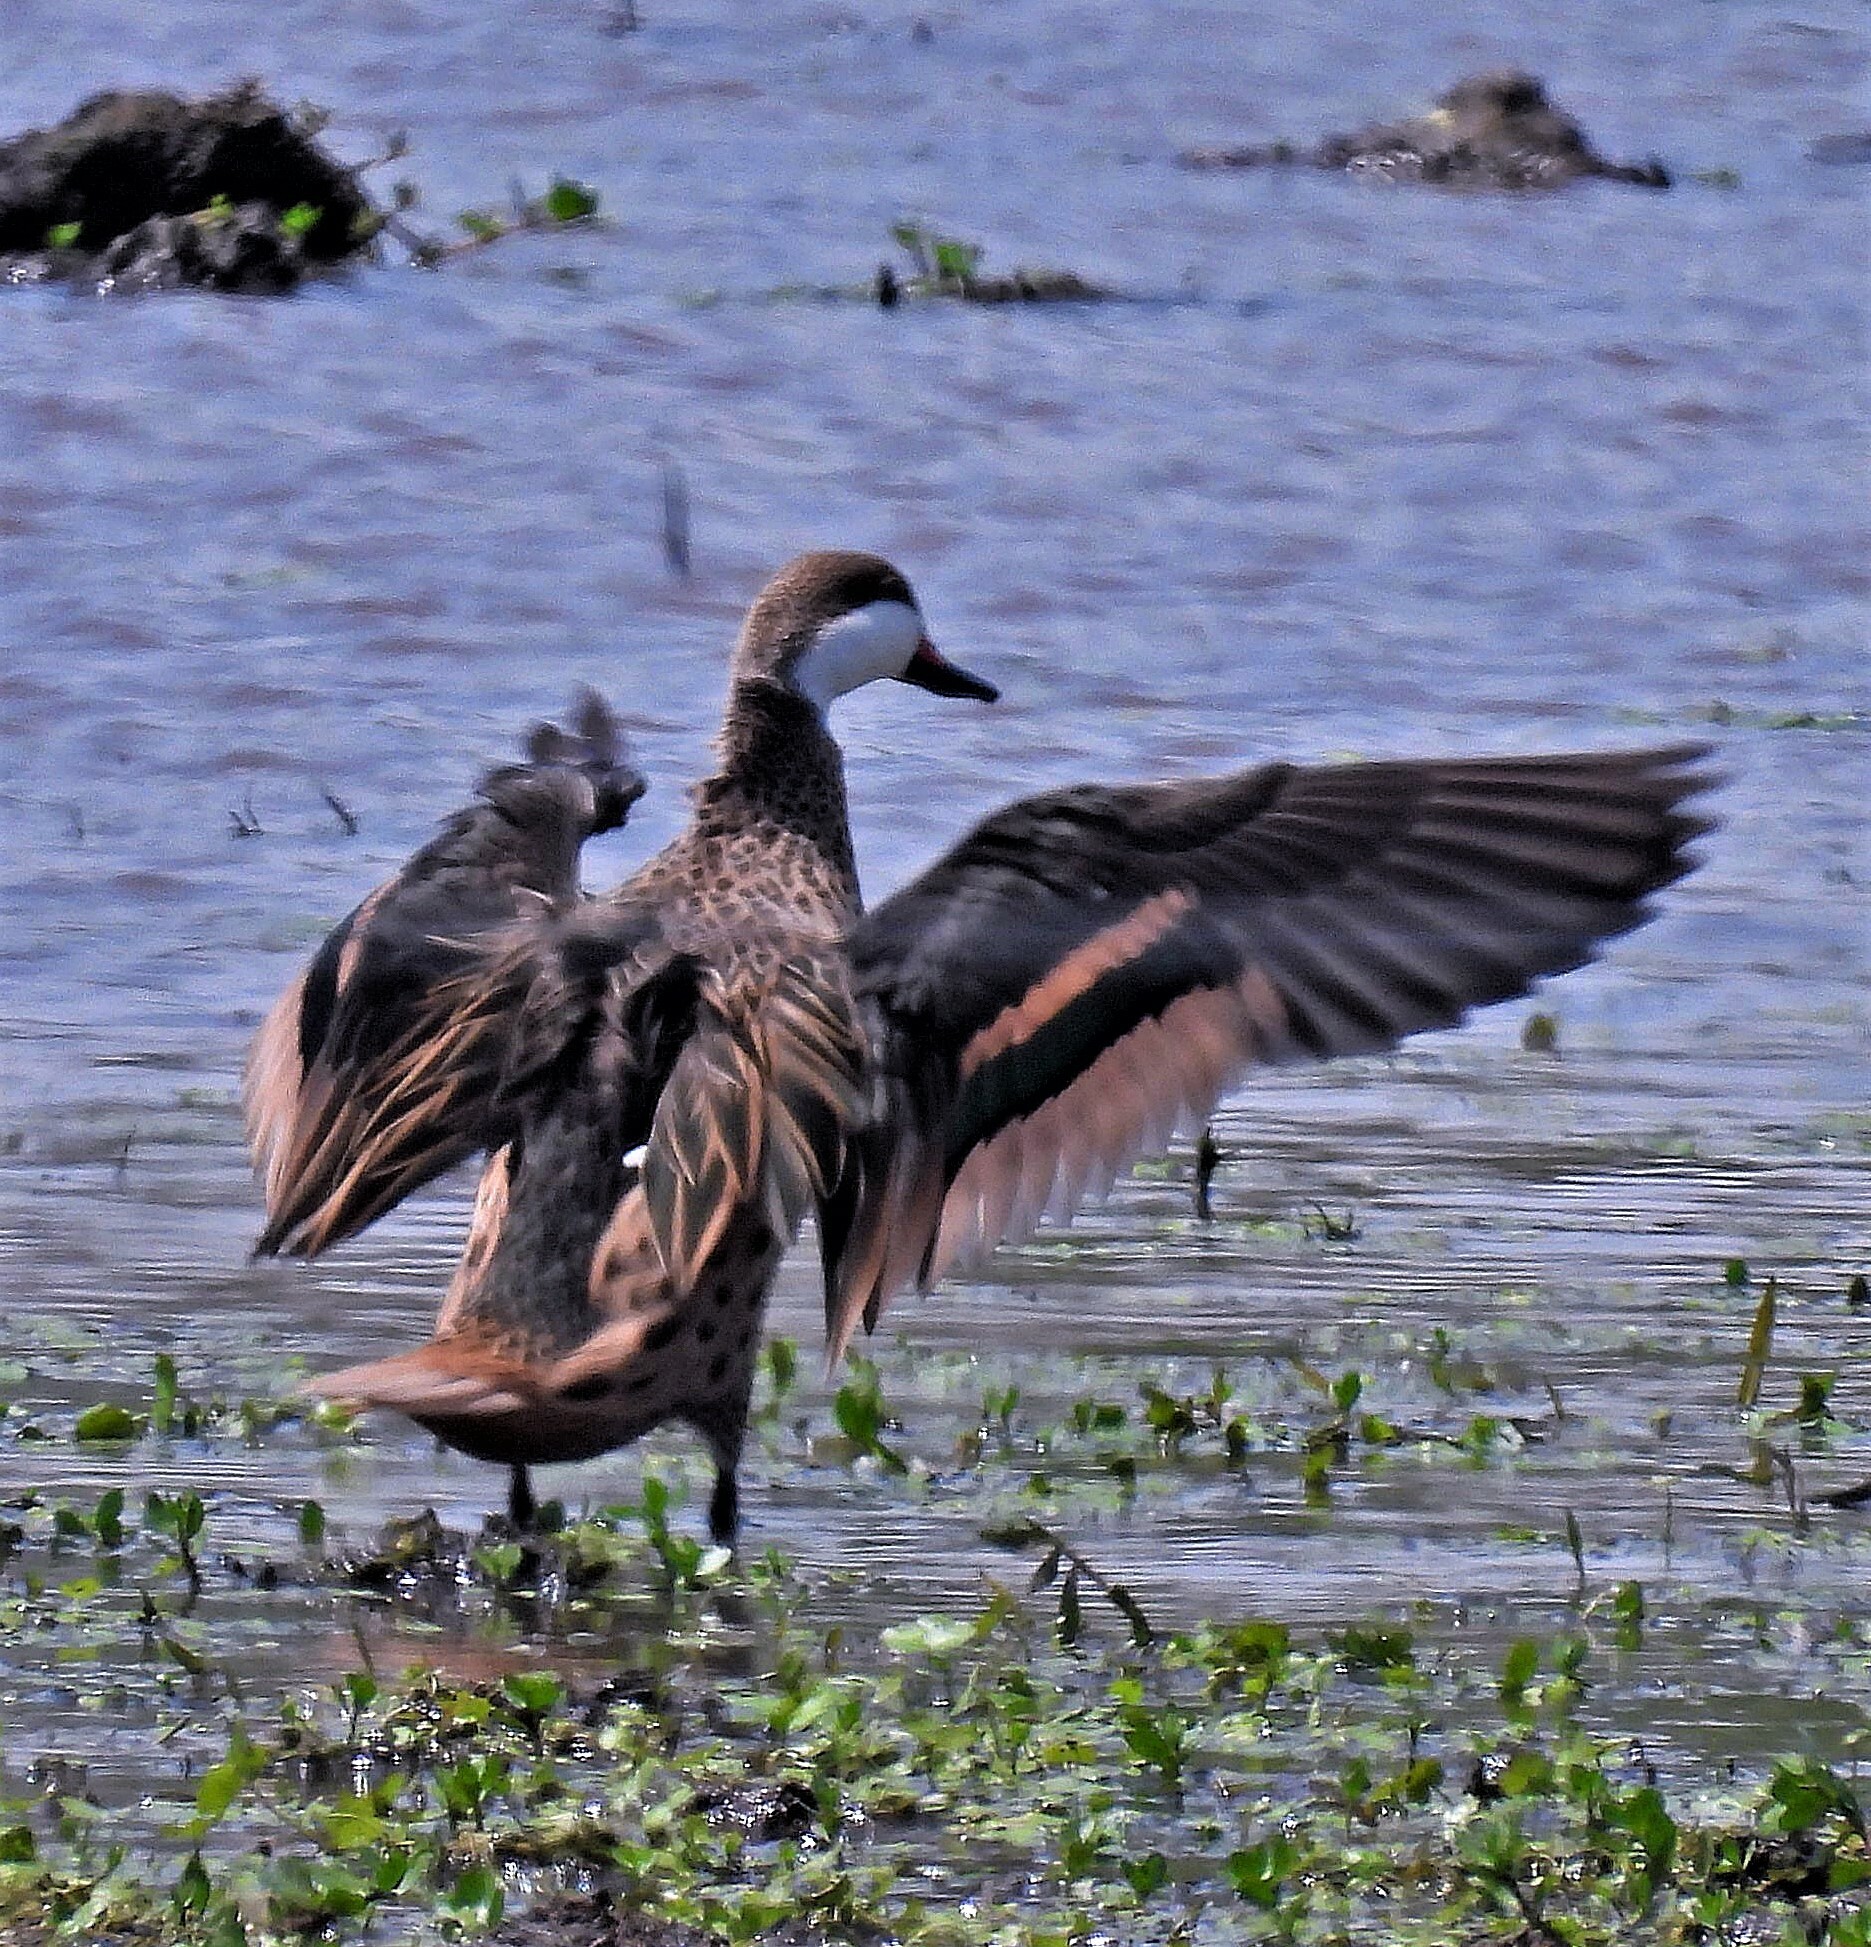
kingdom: Animalia
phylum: Chordata
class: Aves
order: Anseriformes
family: Anatidae
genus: Anas
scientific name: Anas bahamensis
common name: White-cheeked pintail
